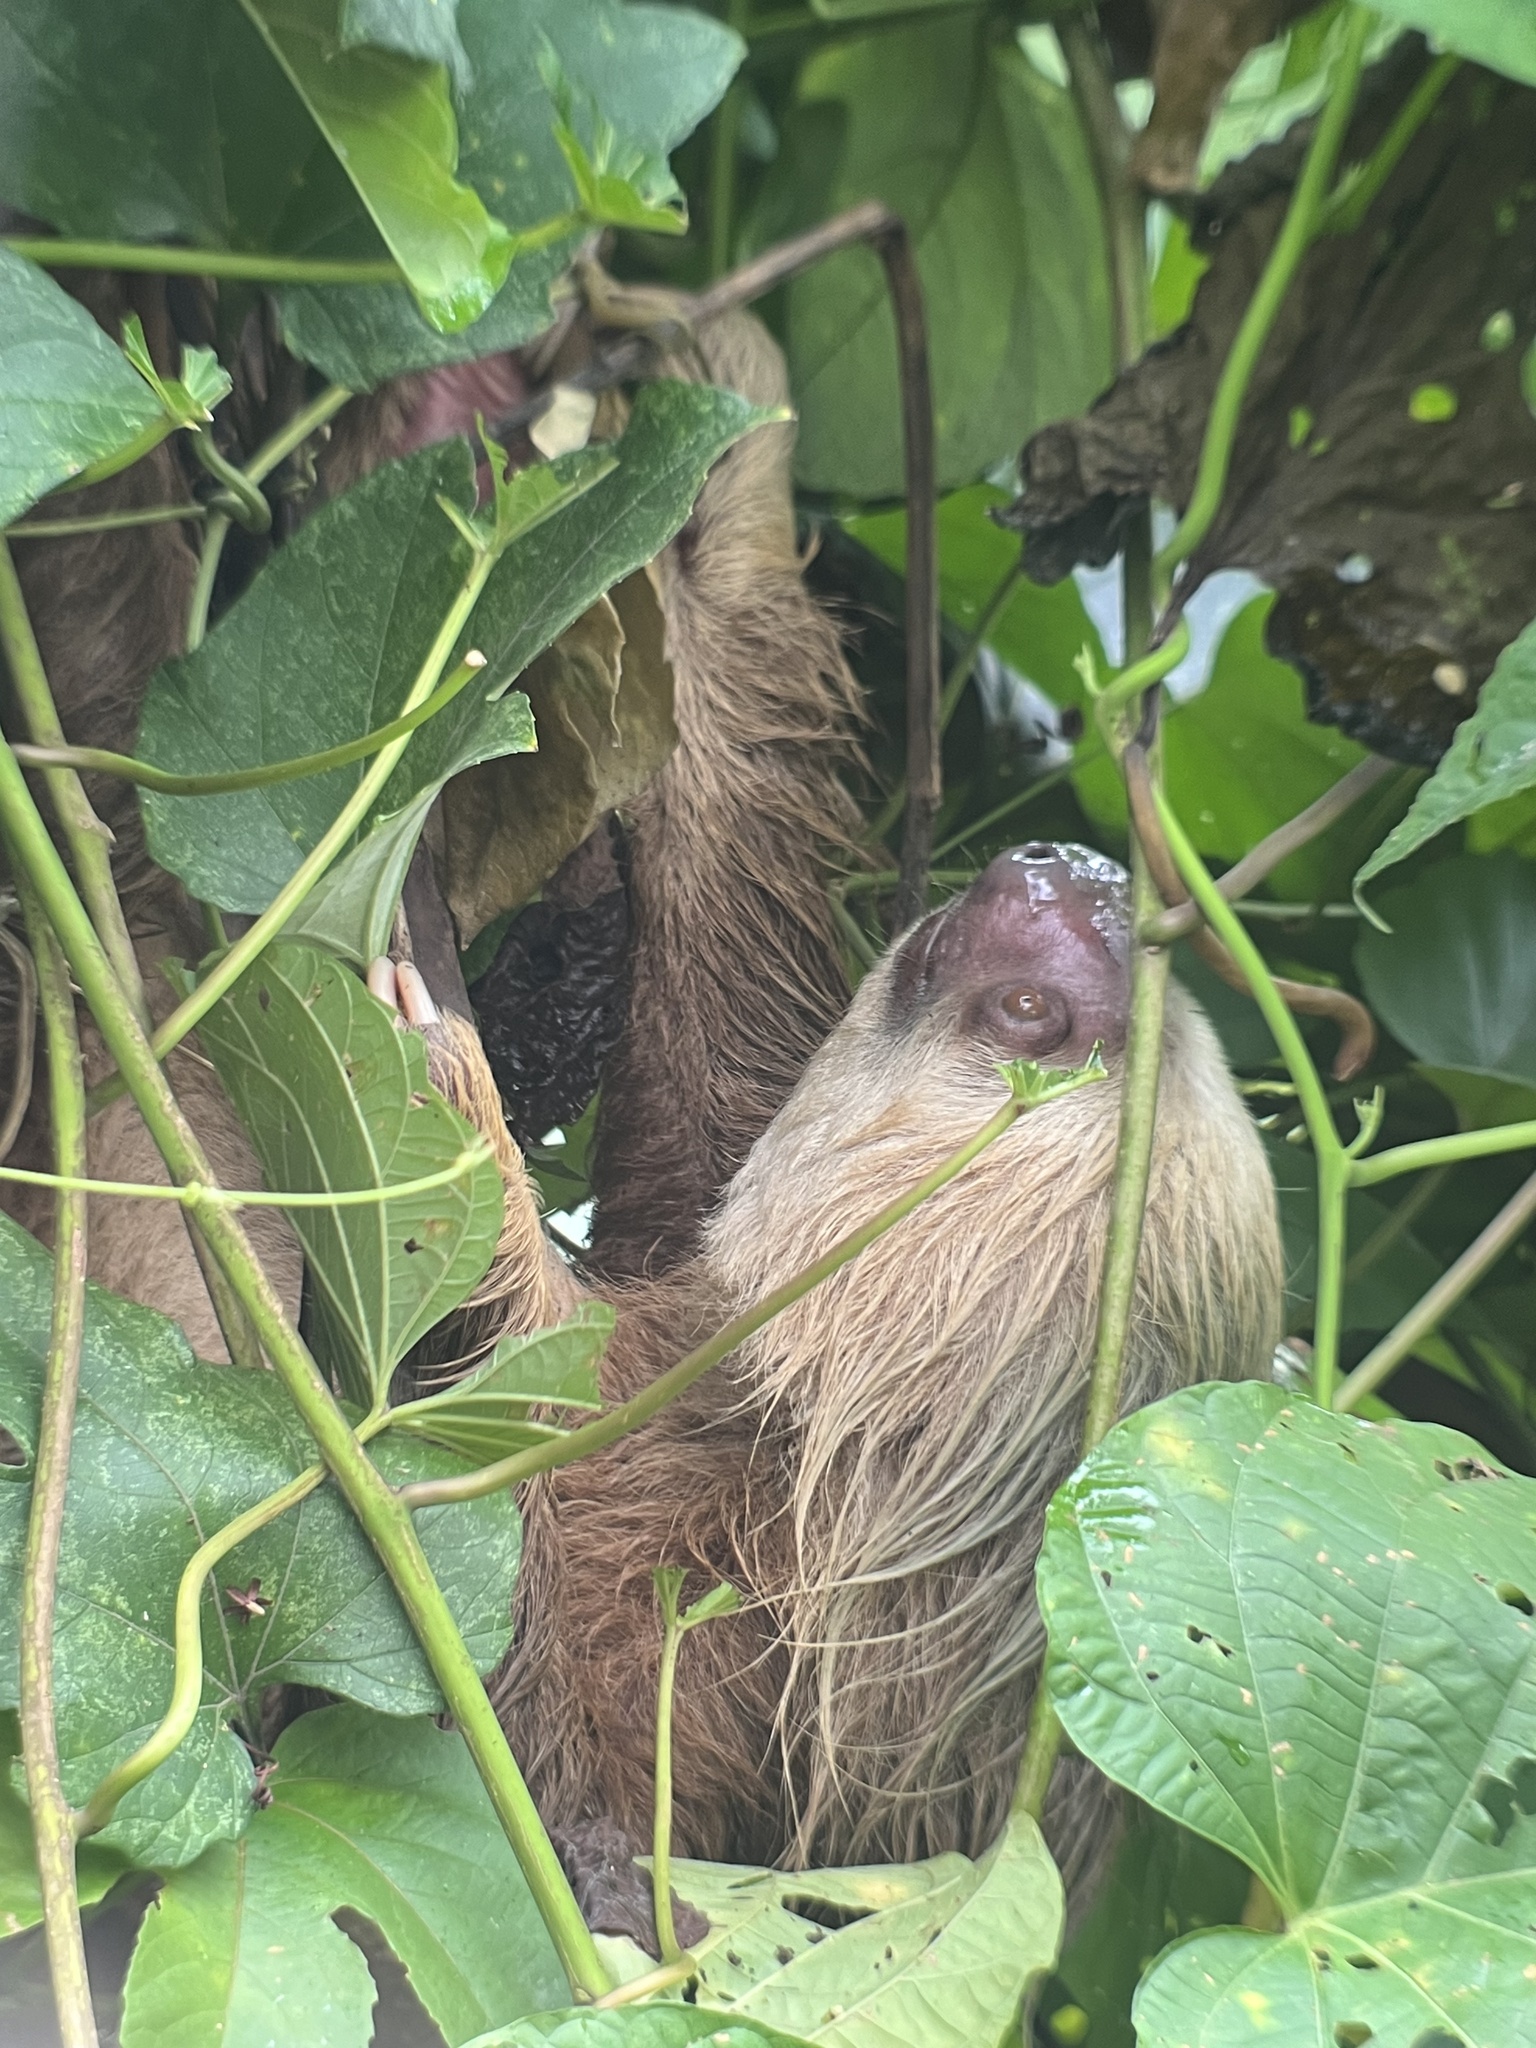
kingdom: Animalia
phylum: Chordata
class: Mammalia
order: Pilosa
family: Megalonychidae
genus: Choloepus
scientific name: Choloepus hoffmanni
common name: Hoffmann's two-toed sloth
